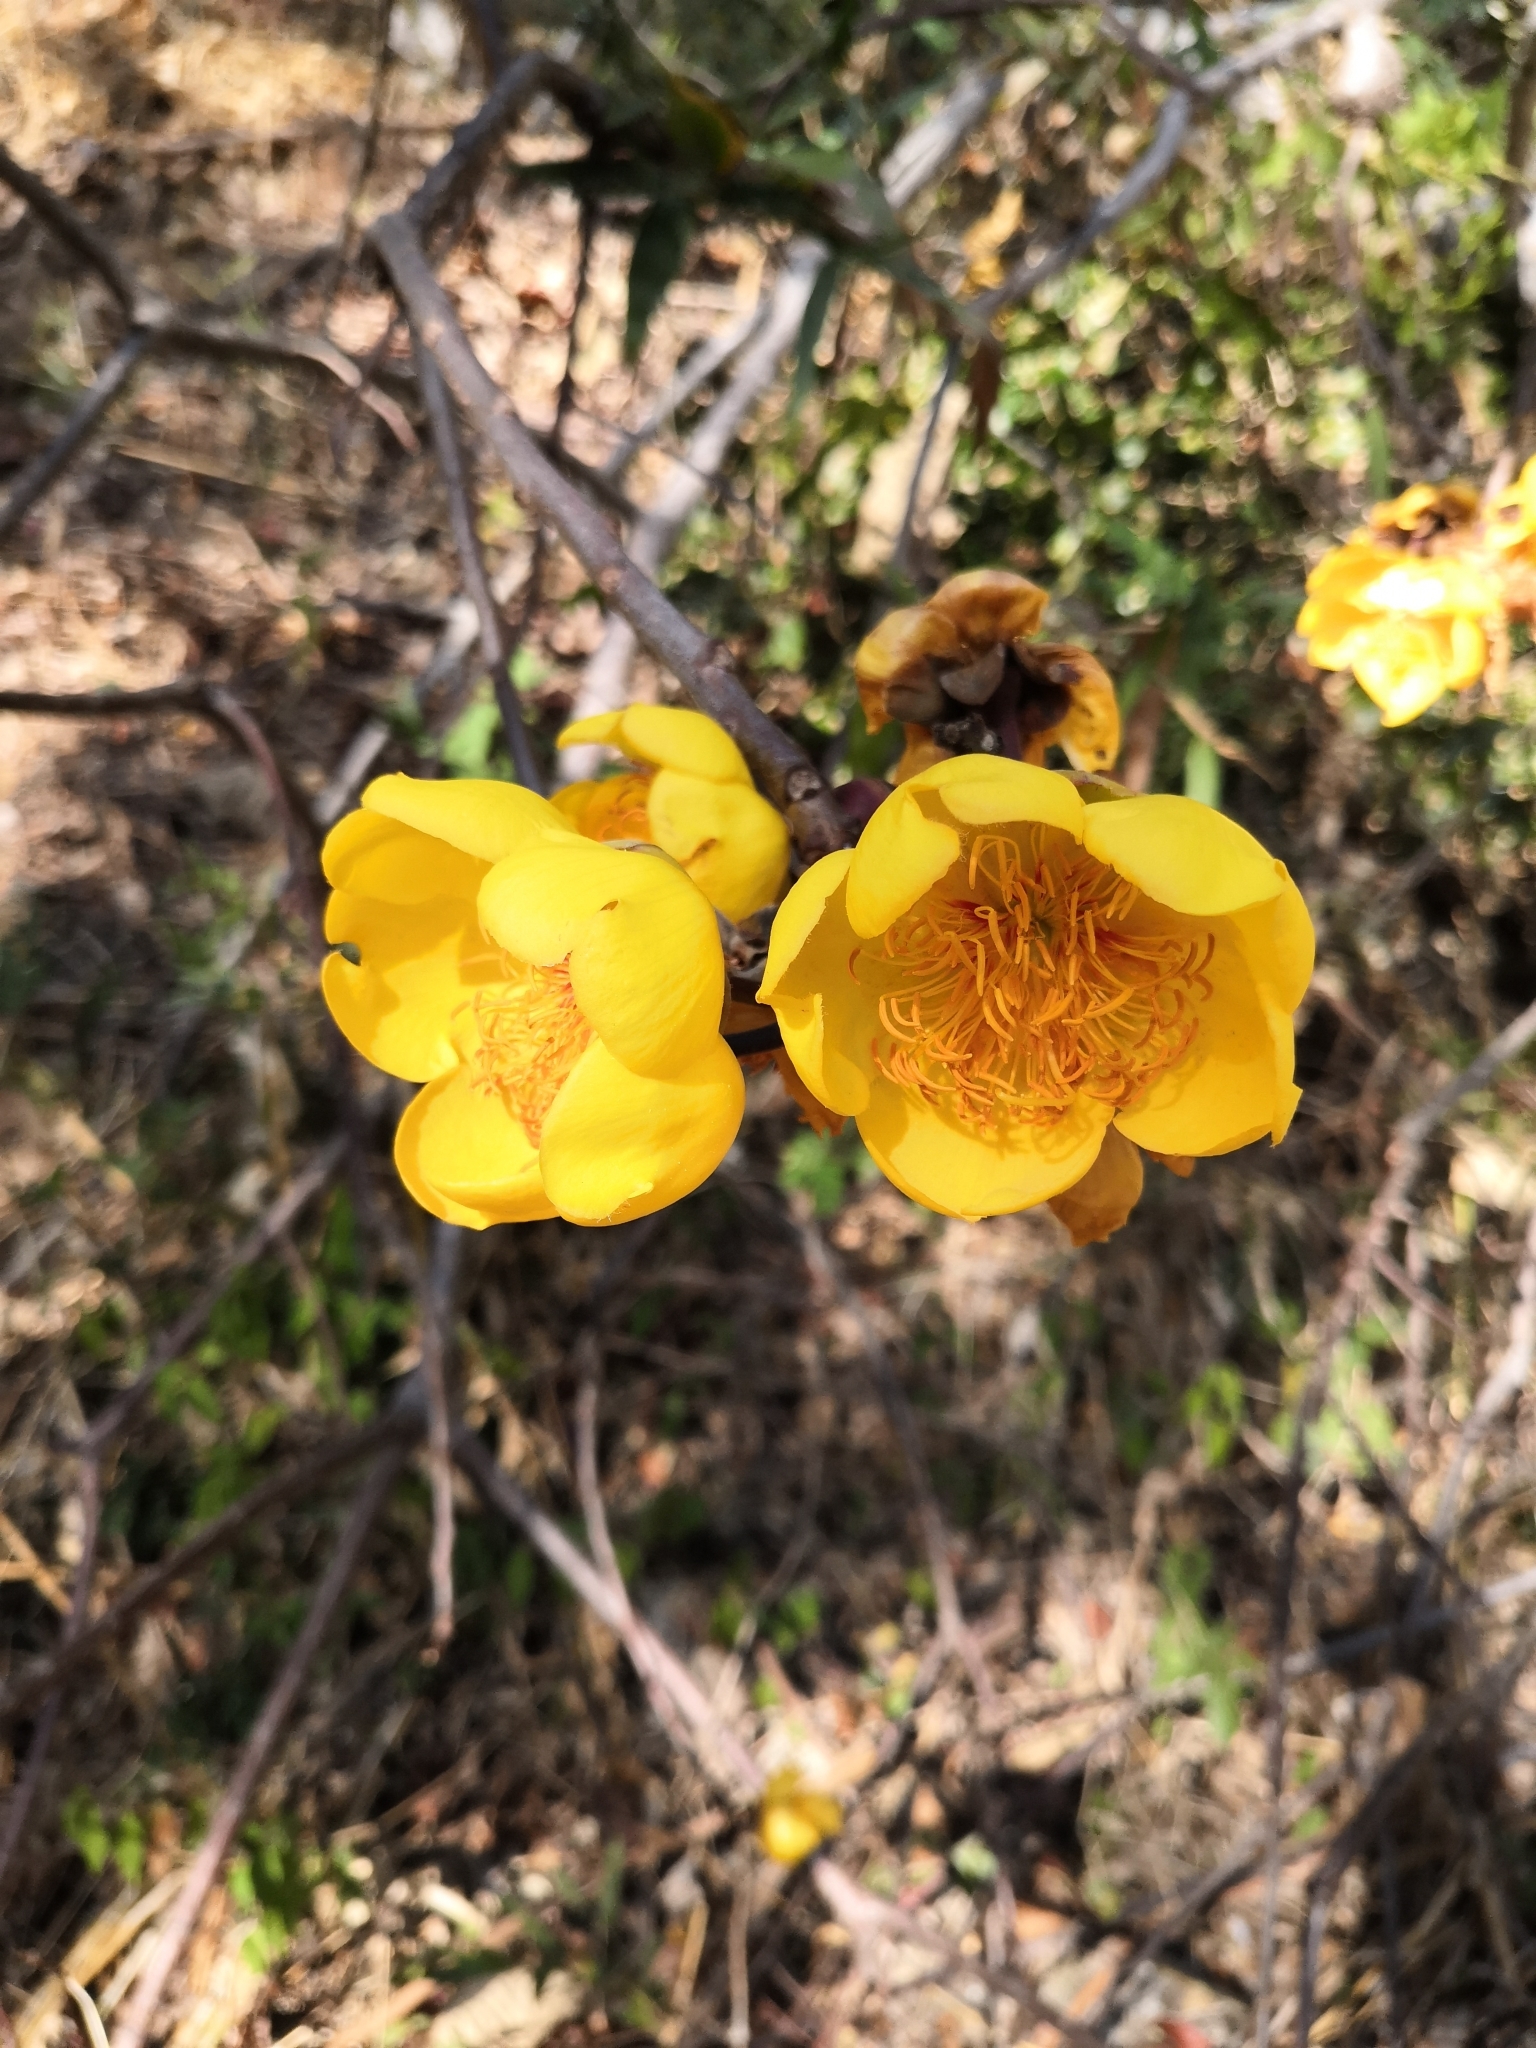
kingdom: Plantae
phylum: Tracheophyta
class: Magnoliopsida
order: Malvales
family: Cochlospermaceae
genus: Cochlospermum
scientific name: Cochlospermum vitifolium
